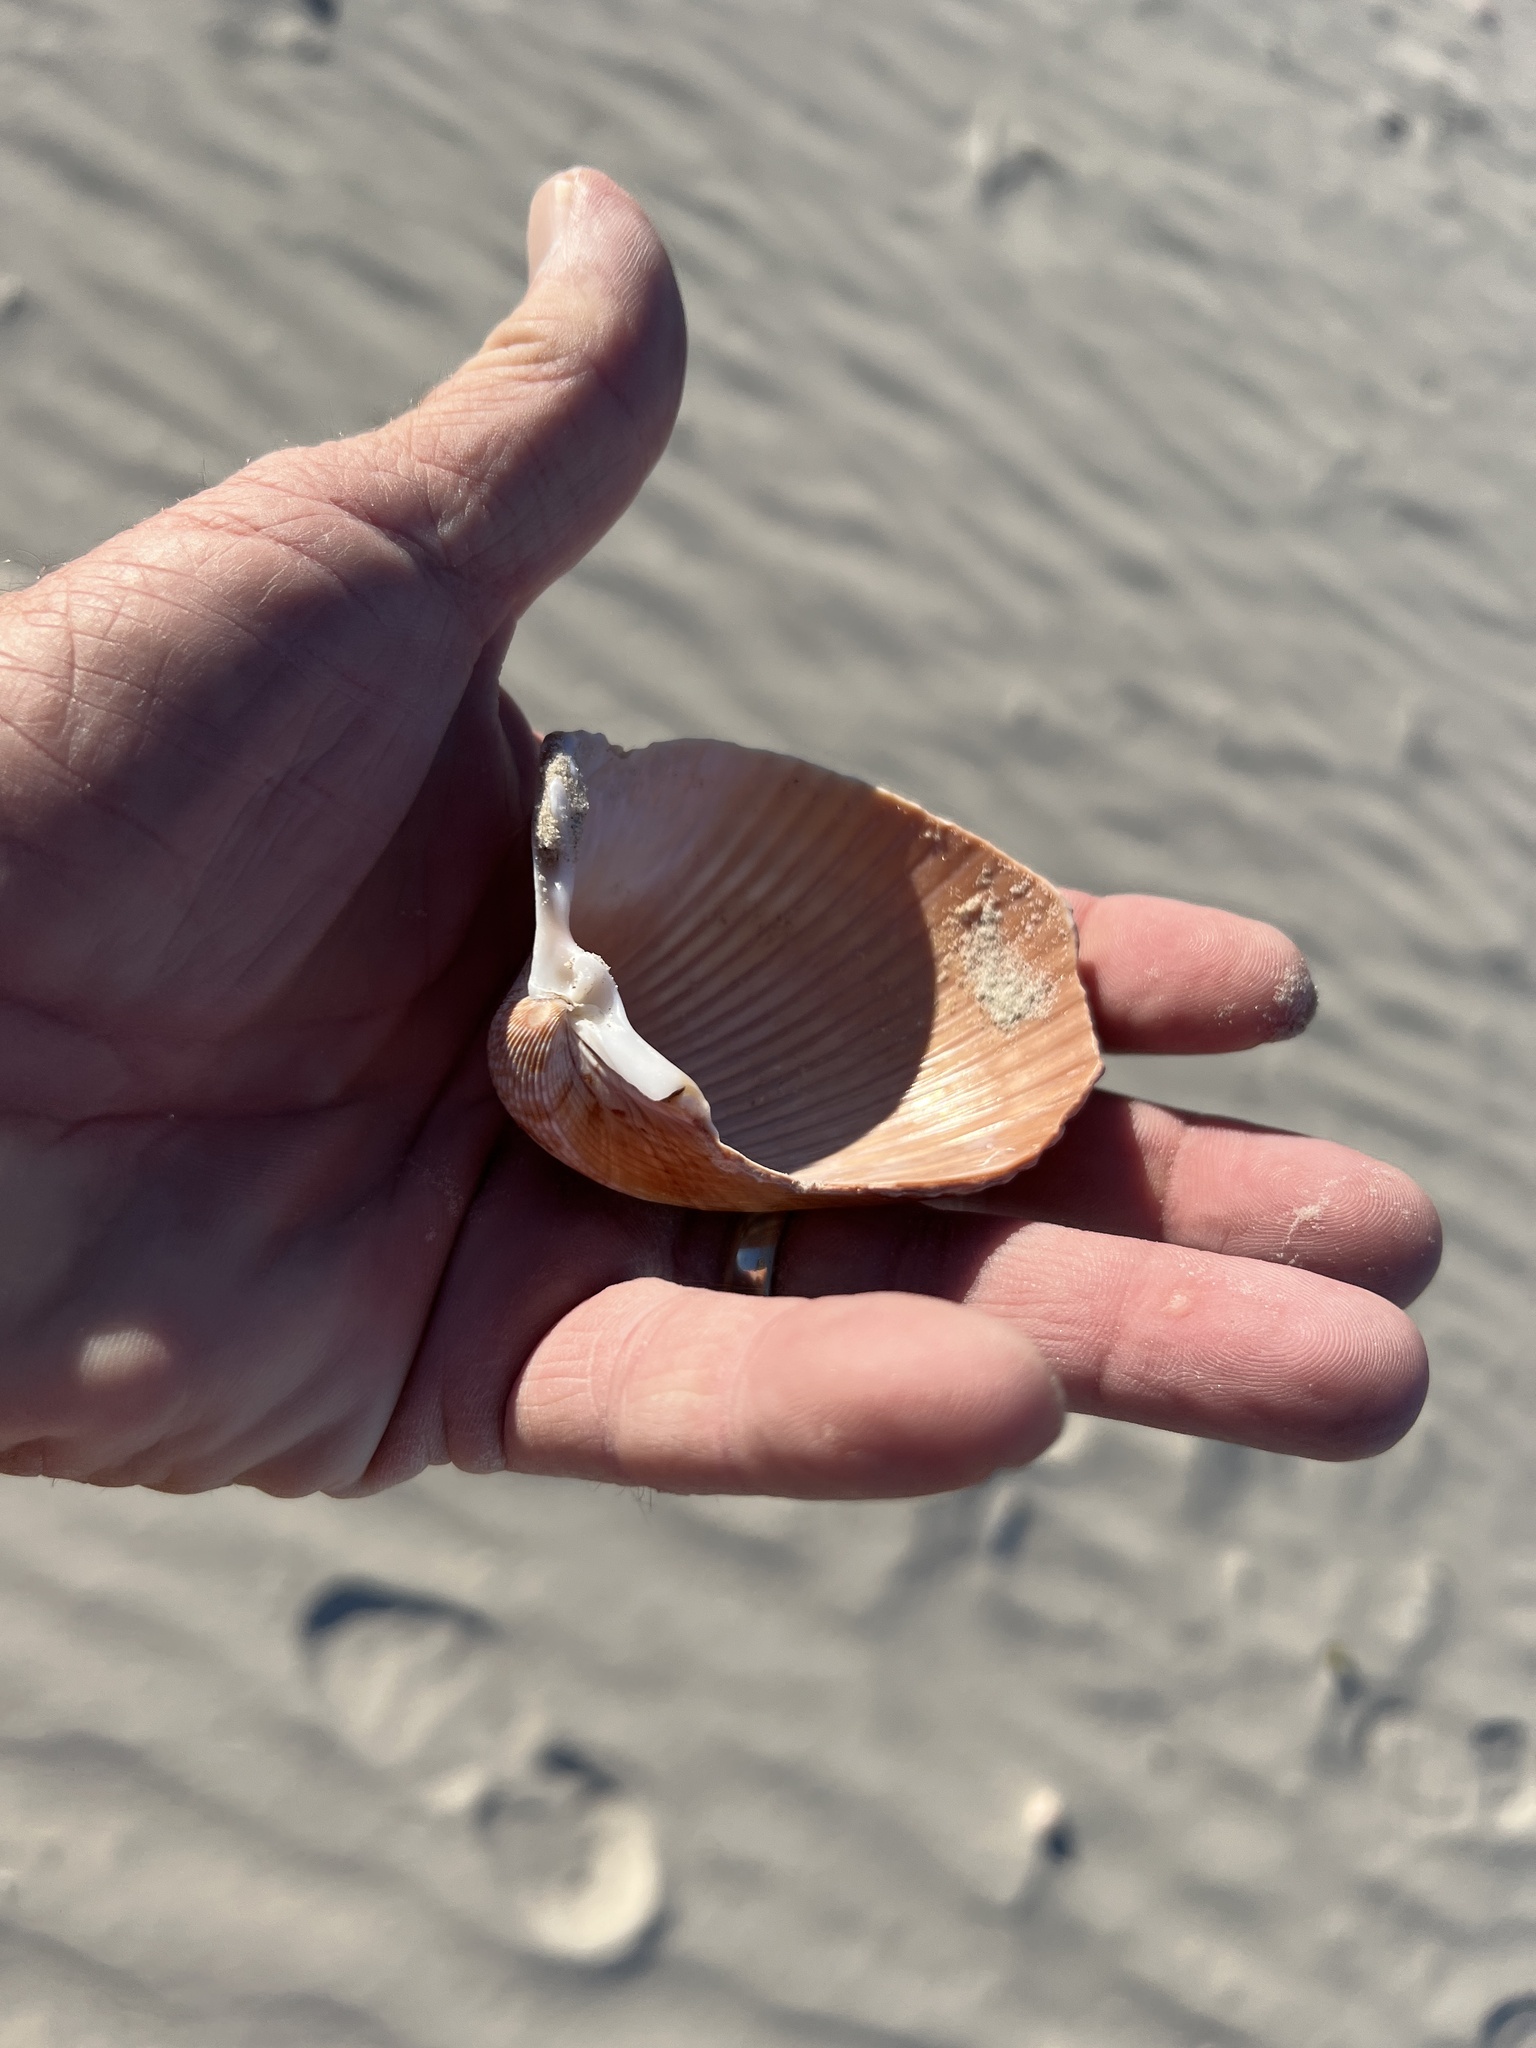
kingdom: Animalia
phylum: Mollusca
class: Bivalvia
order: Cardiida
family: Cardiidae
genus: Dinocardium
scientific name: Dinocardium robustum
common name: Atlantic giant cockle
